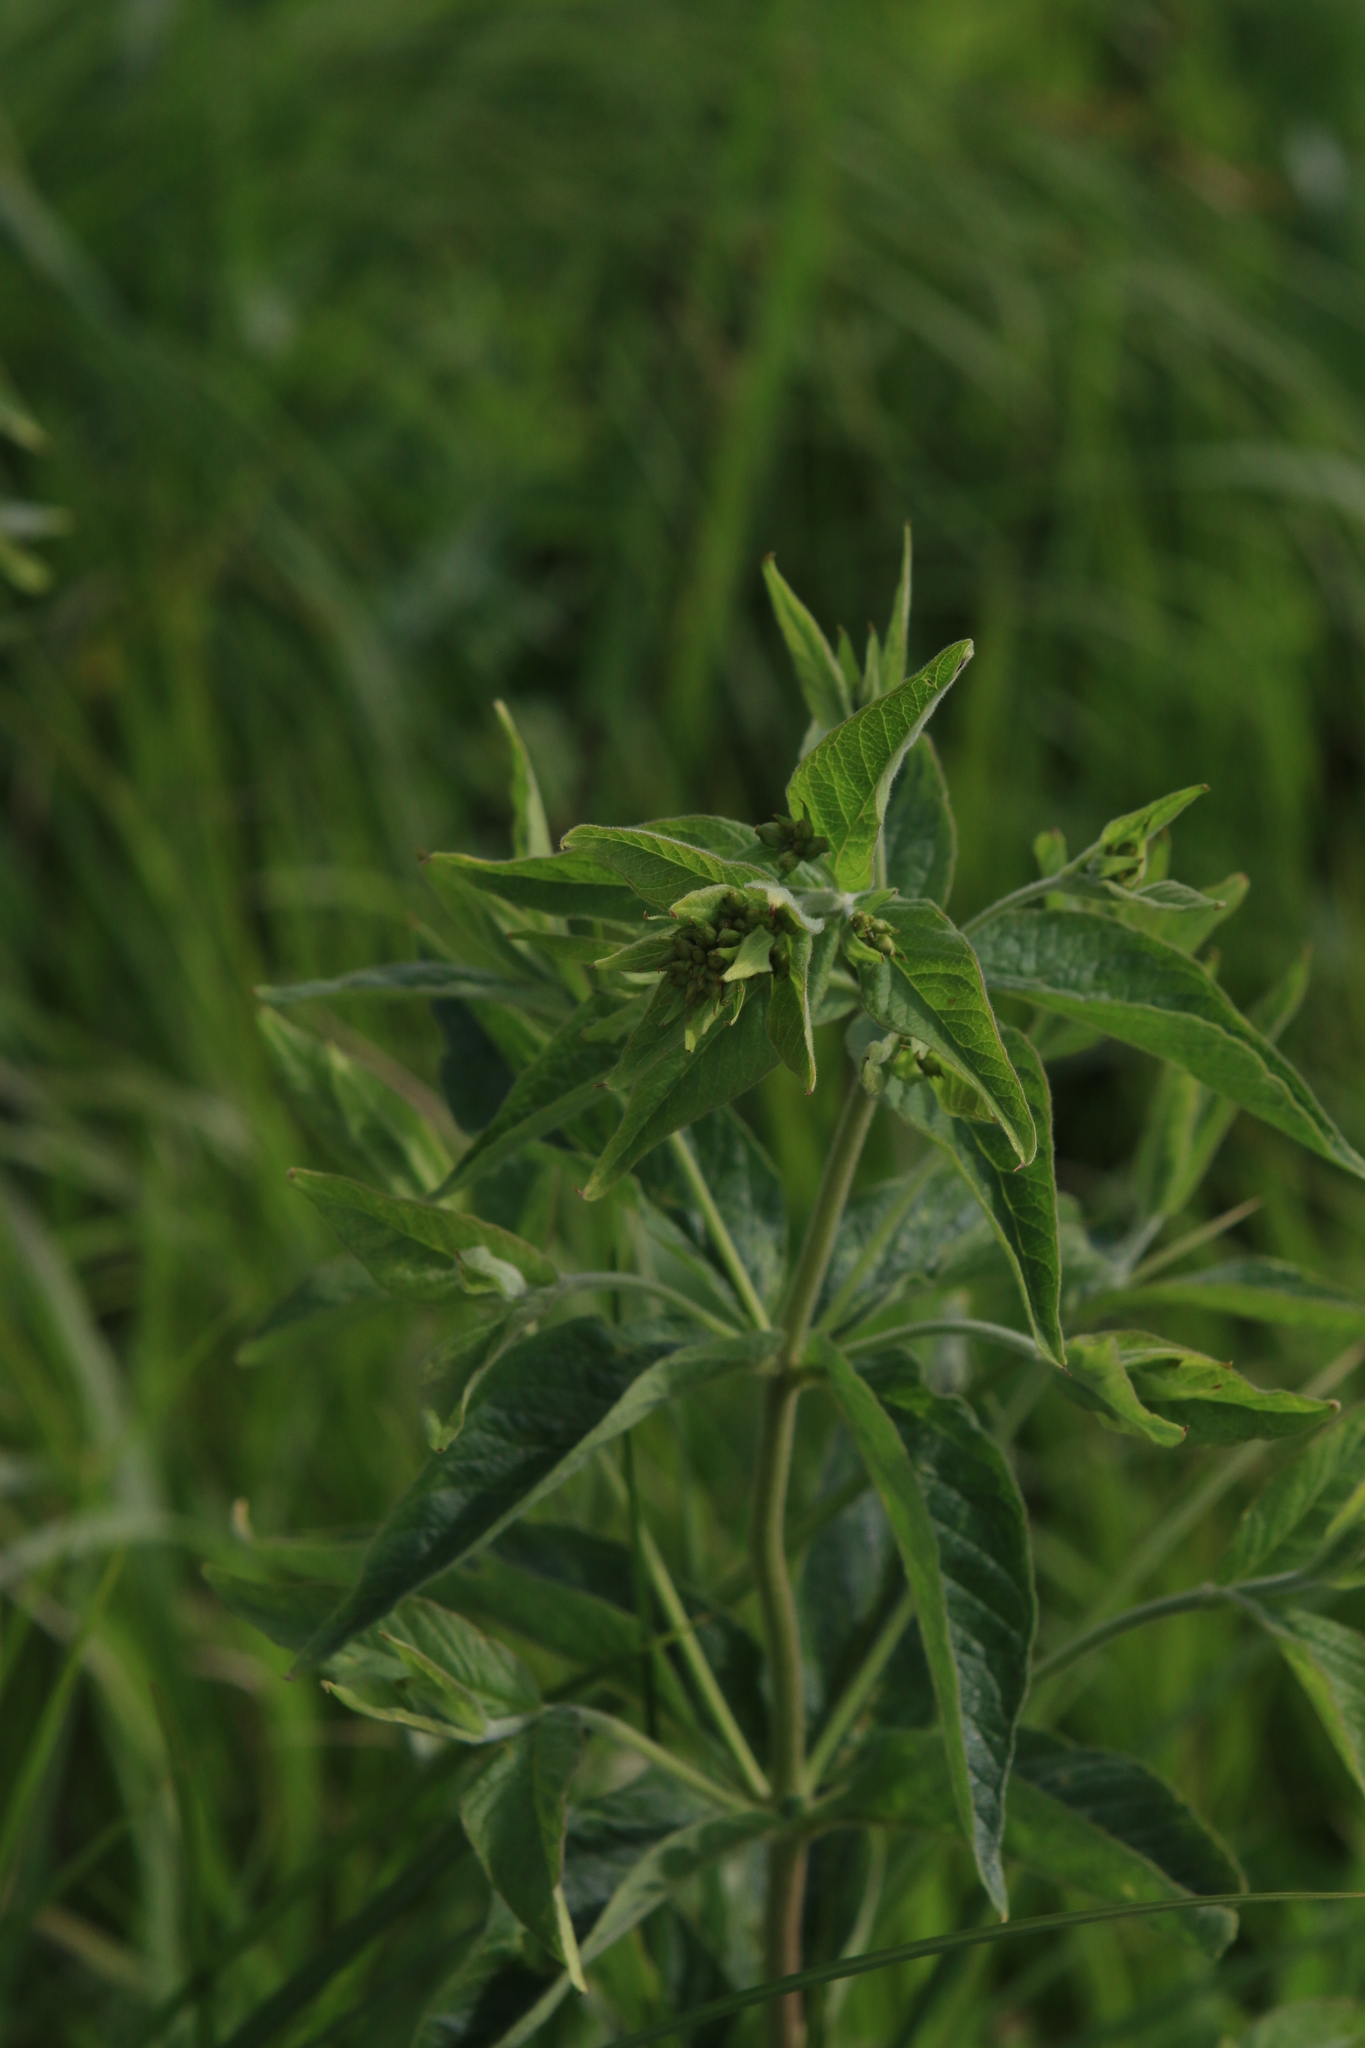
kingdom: Plantae
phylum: Tracheophyta
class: Magnoliopsida
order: Ericales
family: Primulaceae
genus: Lysimachia
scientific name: Lysimachia vulgaris
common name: Yellow loosestrife
